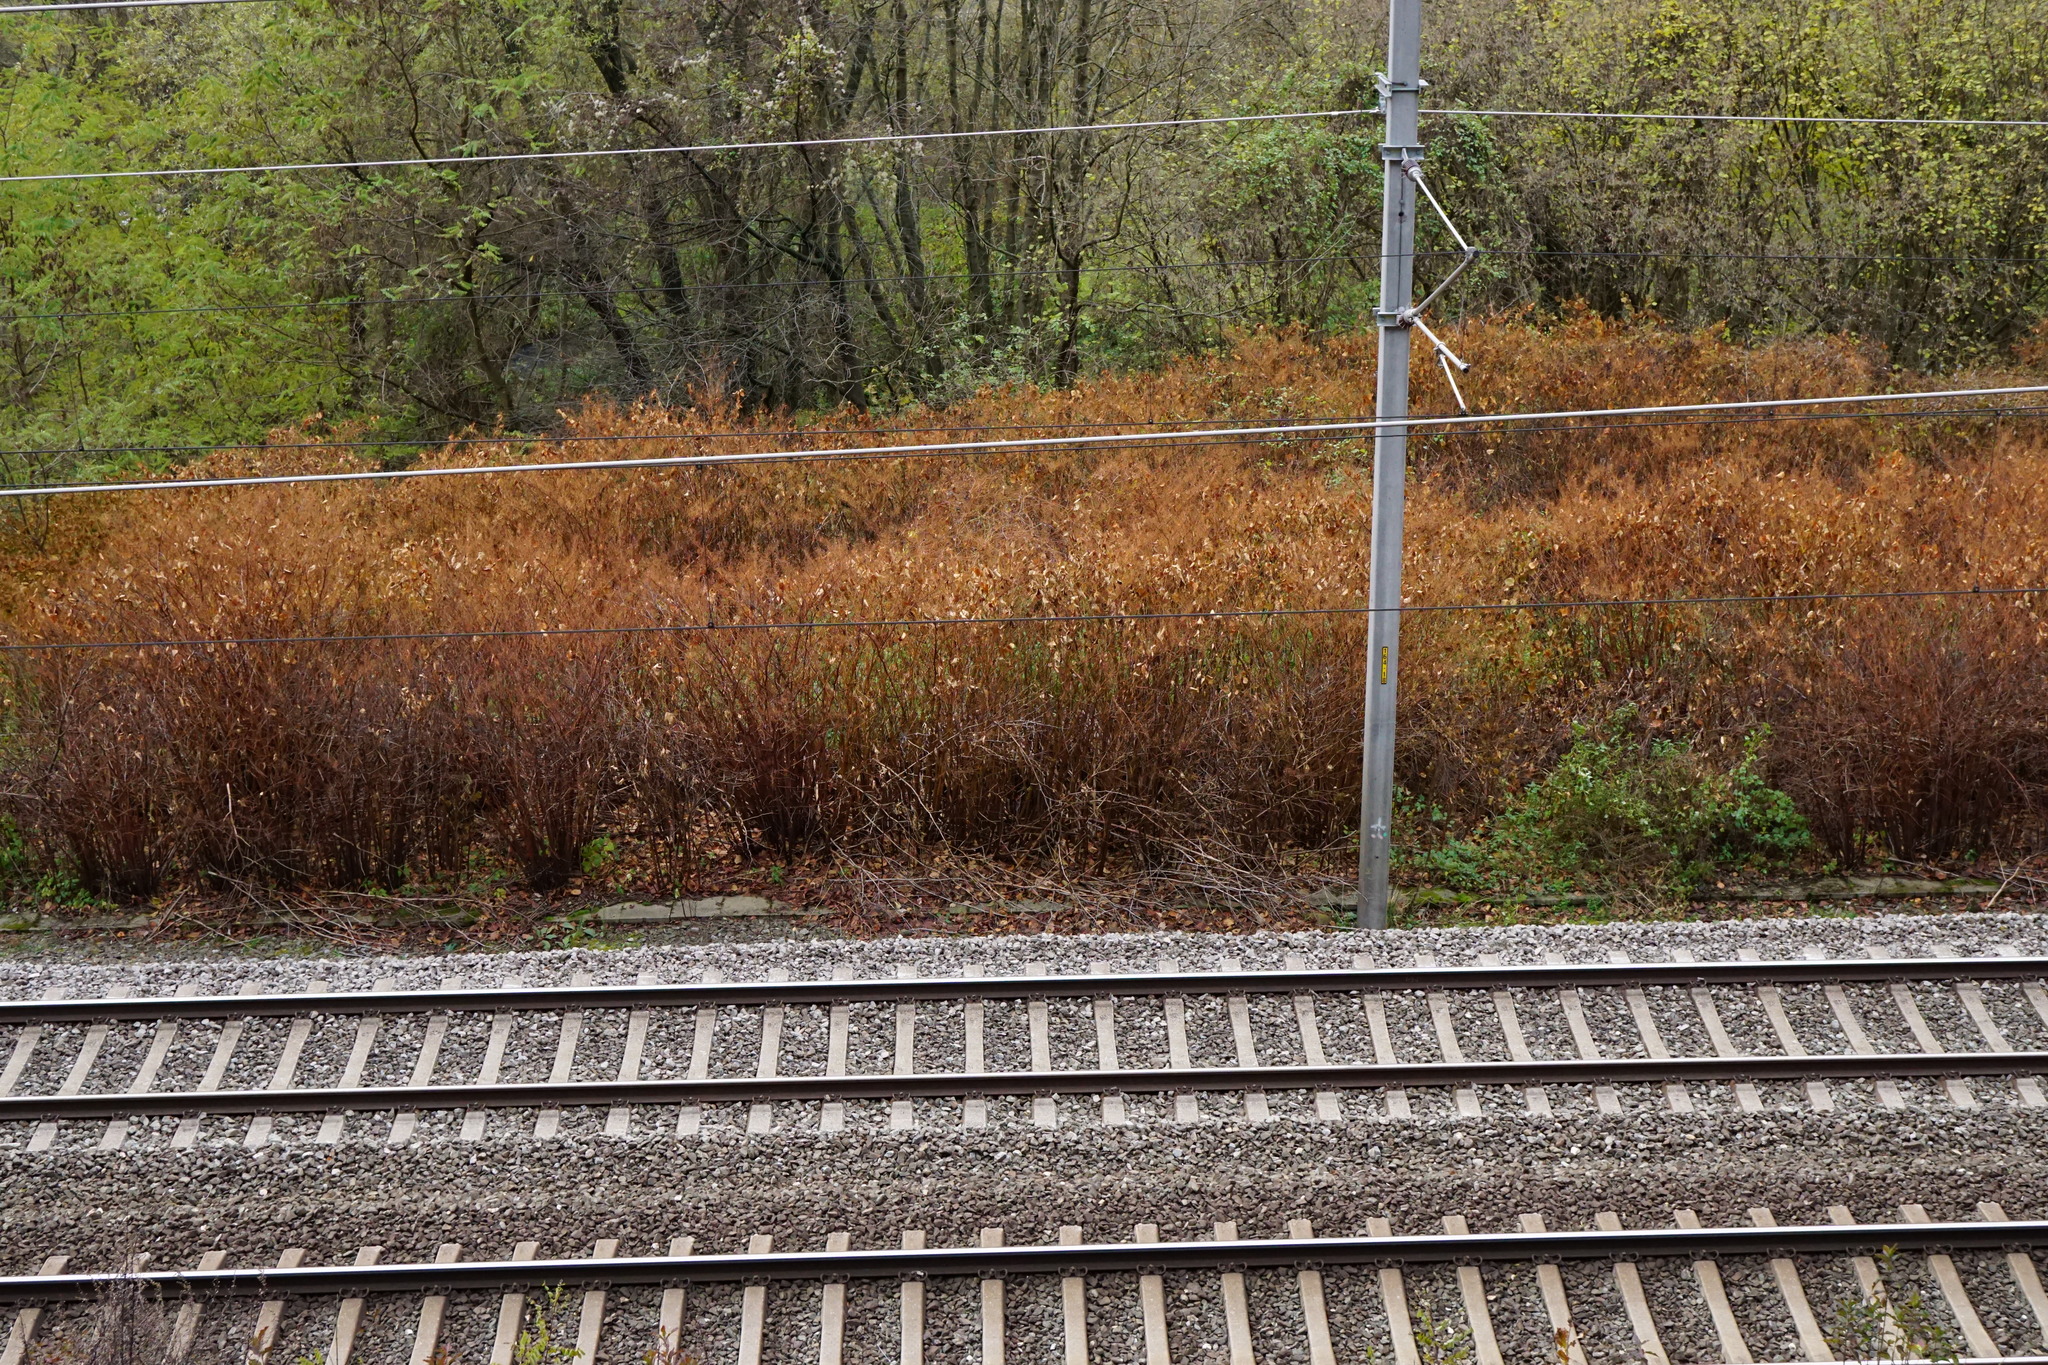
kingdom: Plantae
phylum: Tracheophyta
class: Magnoliopsida
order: Caryophyllales
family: Polygonaceae
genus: Reynoutria
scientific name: Reynoutria
